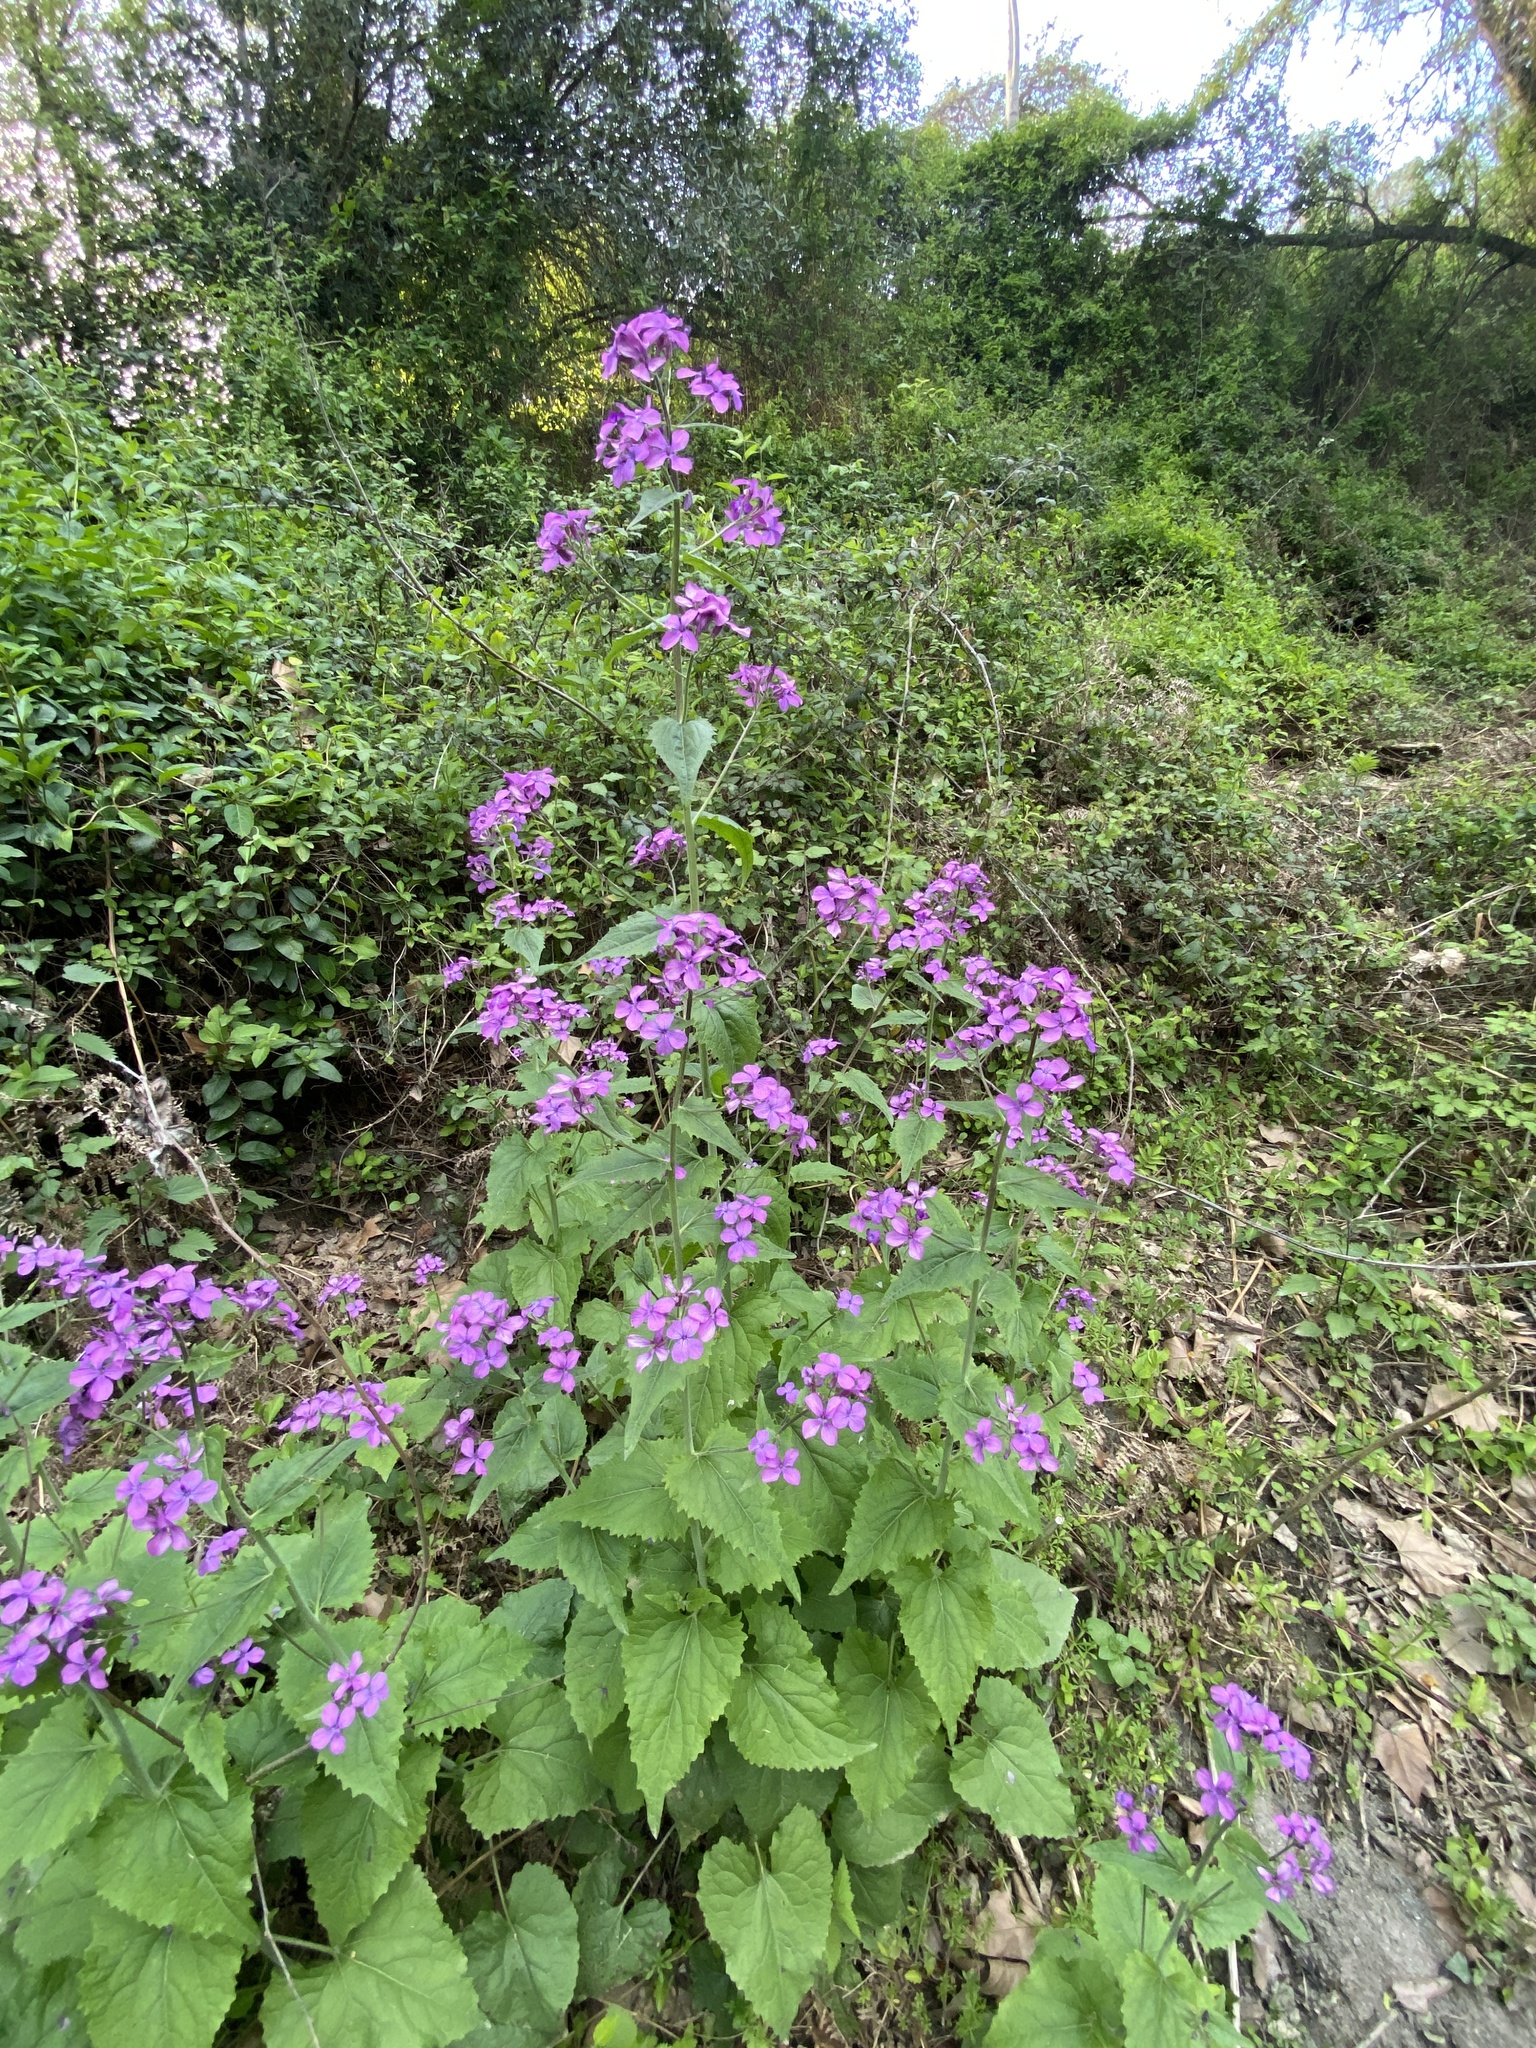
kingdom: Plantae
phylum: Tracheophyta
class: Magnoliopsida
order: Brassicales
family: Brassicaceae
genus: Lunaria
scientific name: Lunaria annua
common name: Honesty
